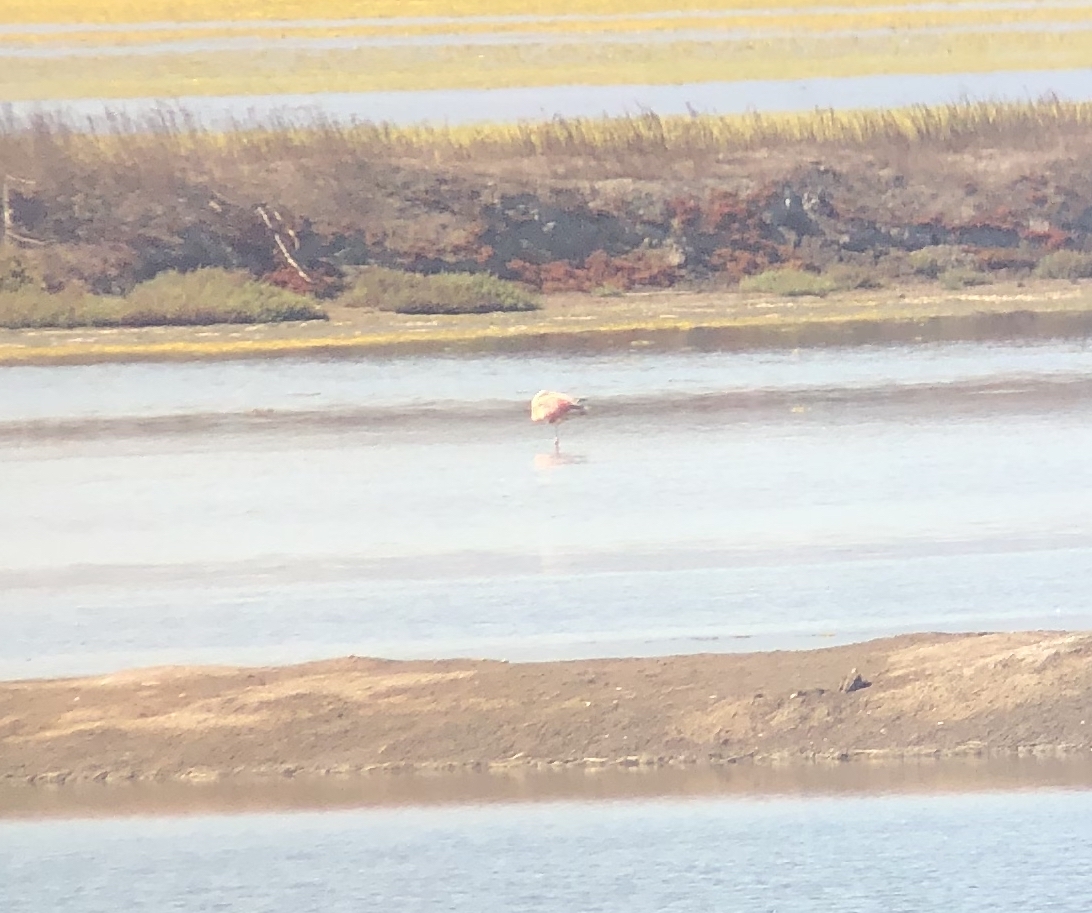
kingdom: Animalia
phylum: Chordata
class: Aves
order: Phoenicopteriformes
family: Phoenicopteridae
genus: Phoenicopterus
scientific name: Phoenicopterus chilensis
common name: Chilean flamingo
